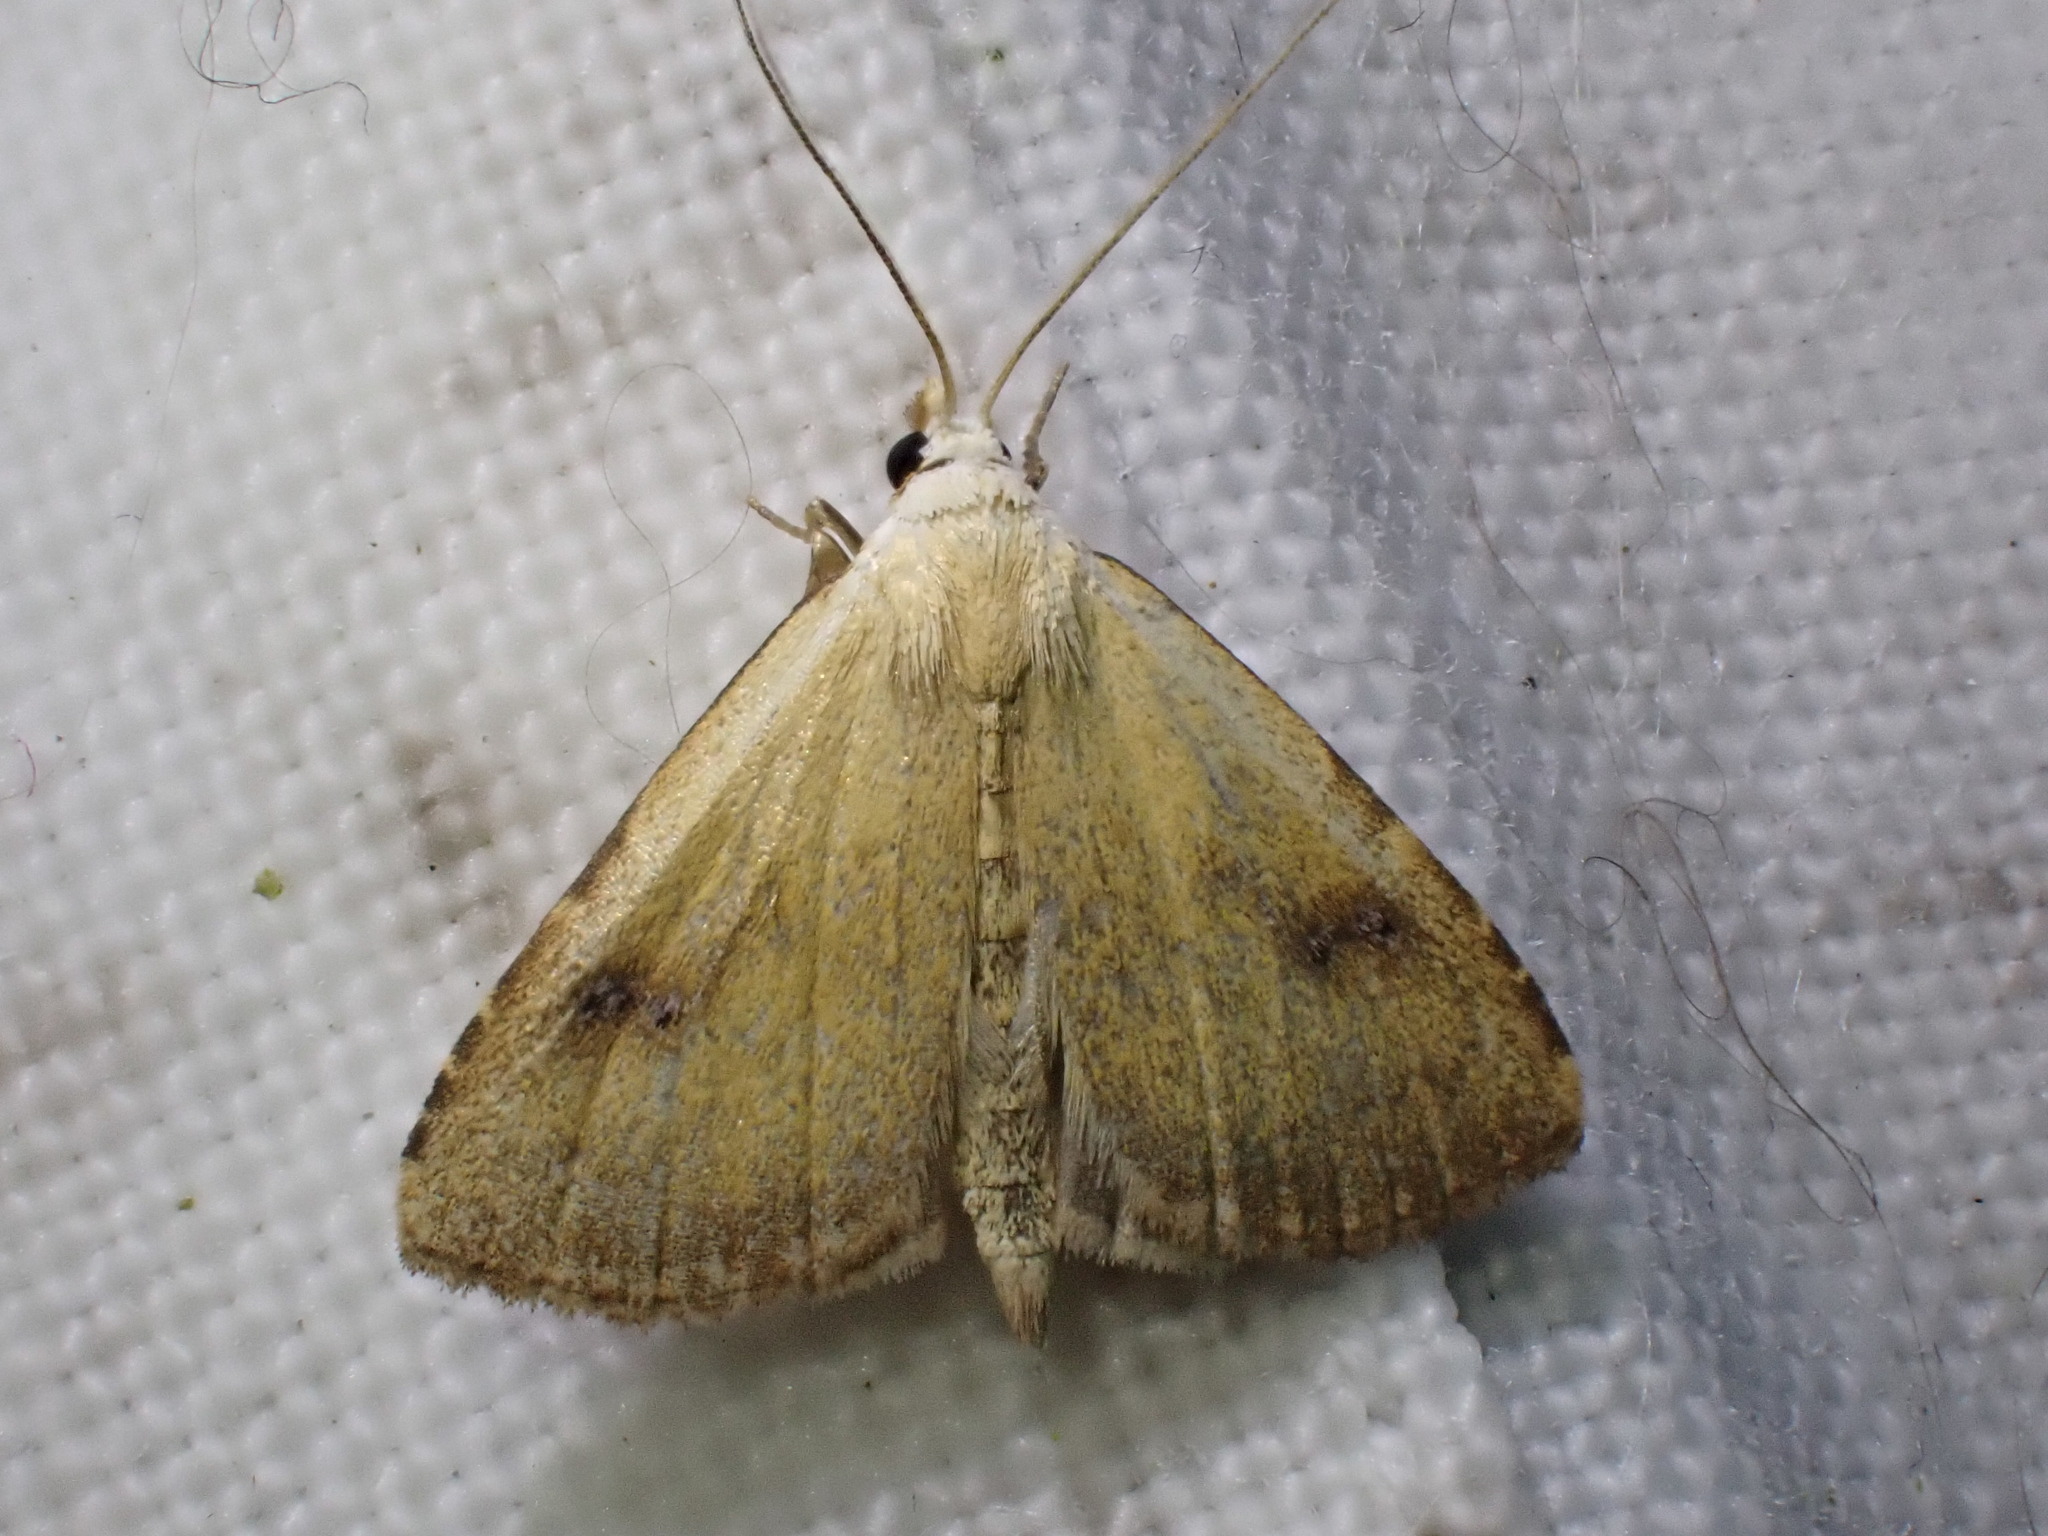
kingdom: Animalia
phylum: Arthropoda
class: Insecta
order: Lepidoptera
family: Erebidae
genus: Rivula
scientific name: Rivula sericealis
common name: Straw dot
